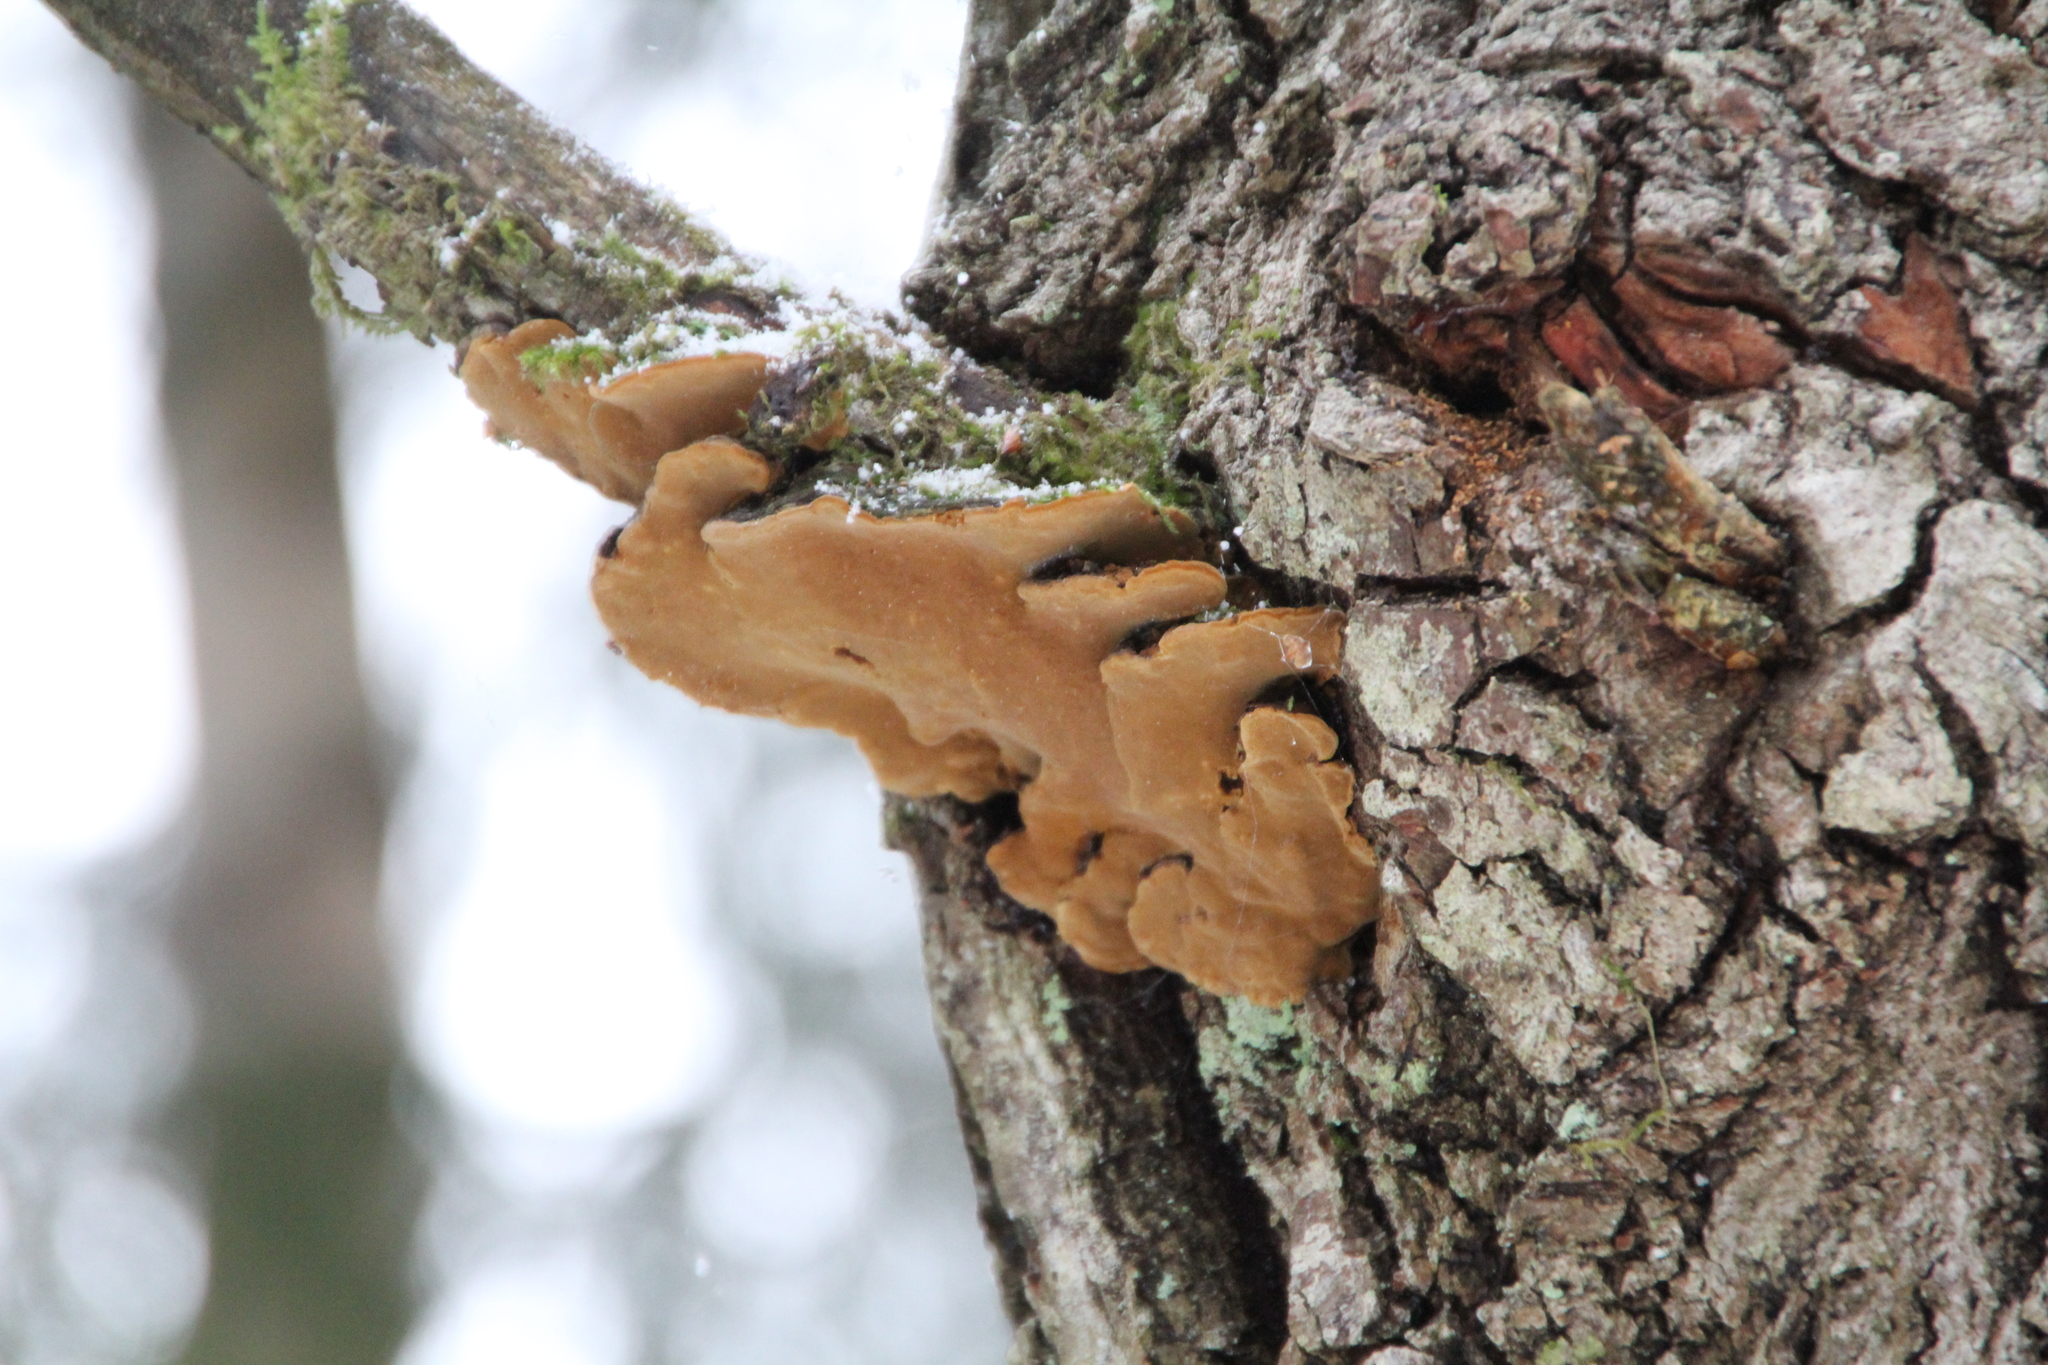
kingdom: Fungi
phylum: Basidiomycota
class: Agaricomycetes
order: Hymenochaetales
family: Hymenochaetaceae
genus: Phellinopsis
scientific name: Phellinopsis conchata
